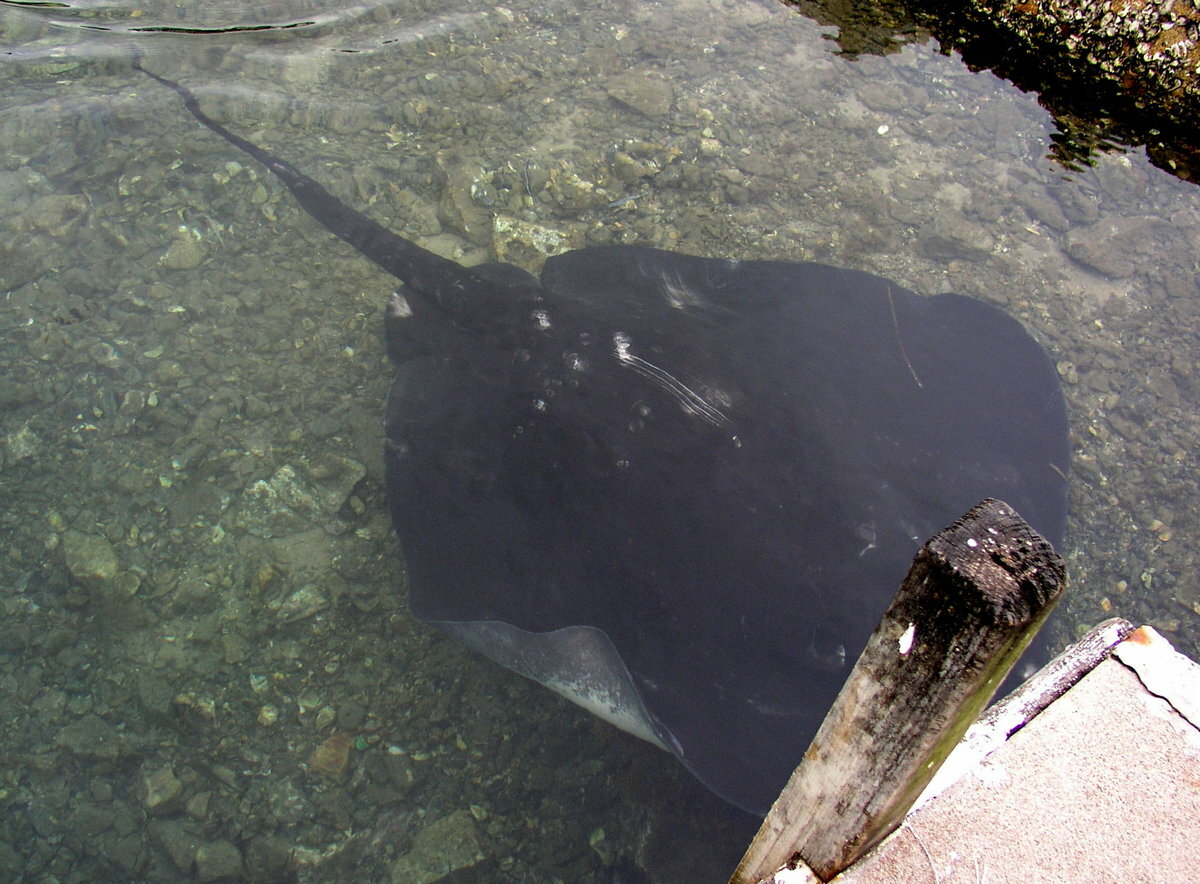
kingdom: Animalia
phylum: Chordata
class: Elasmobranchii
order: Myliobatiformes
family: Dasyatidae
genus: Bathytoshia
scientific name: Bathytoshia brevicaudata
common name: Short-tail stingray
